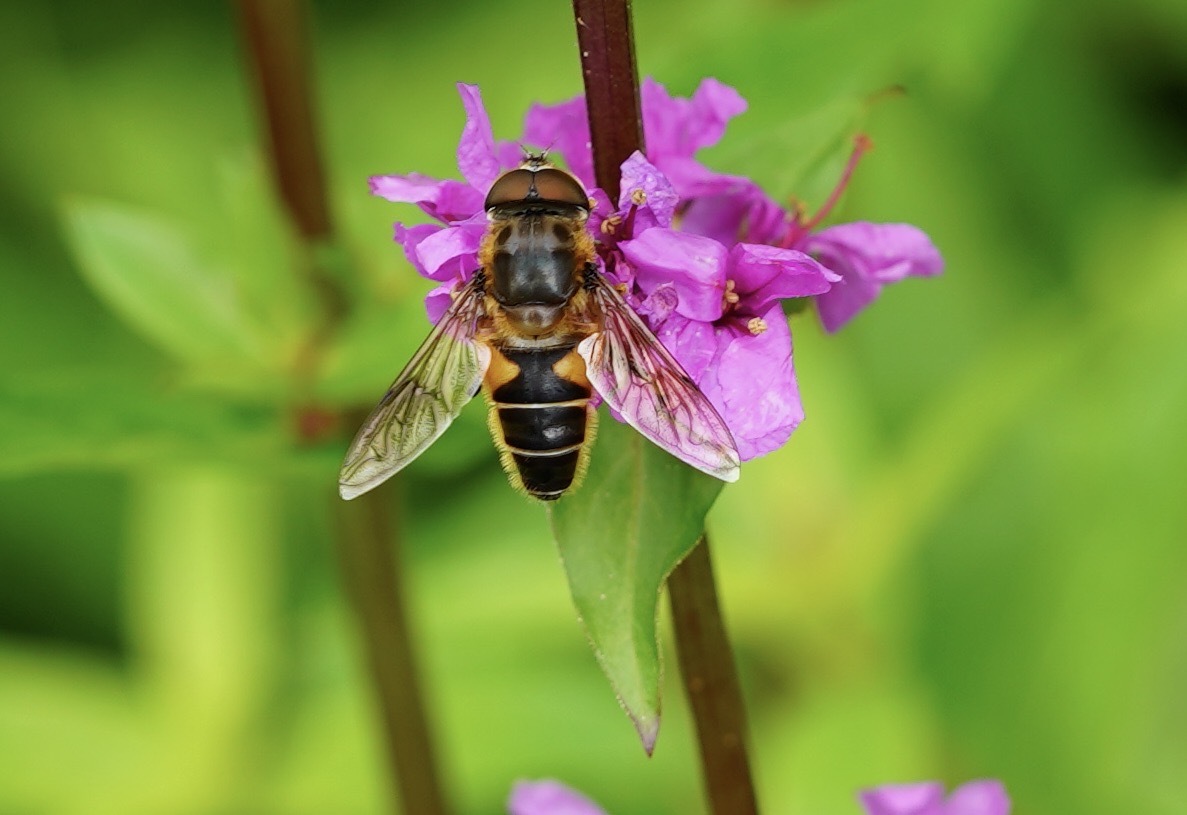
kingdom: Animalia
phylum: Arthropoda
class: Insecta
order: Diptera
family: Syrphidae
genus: Eristalis
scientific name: Eristalis pertinax
